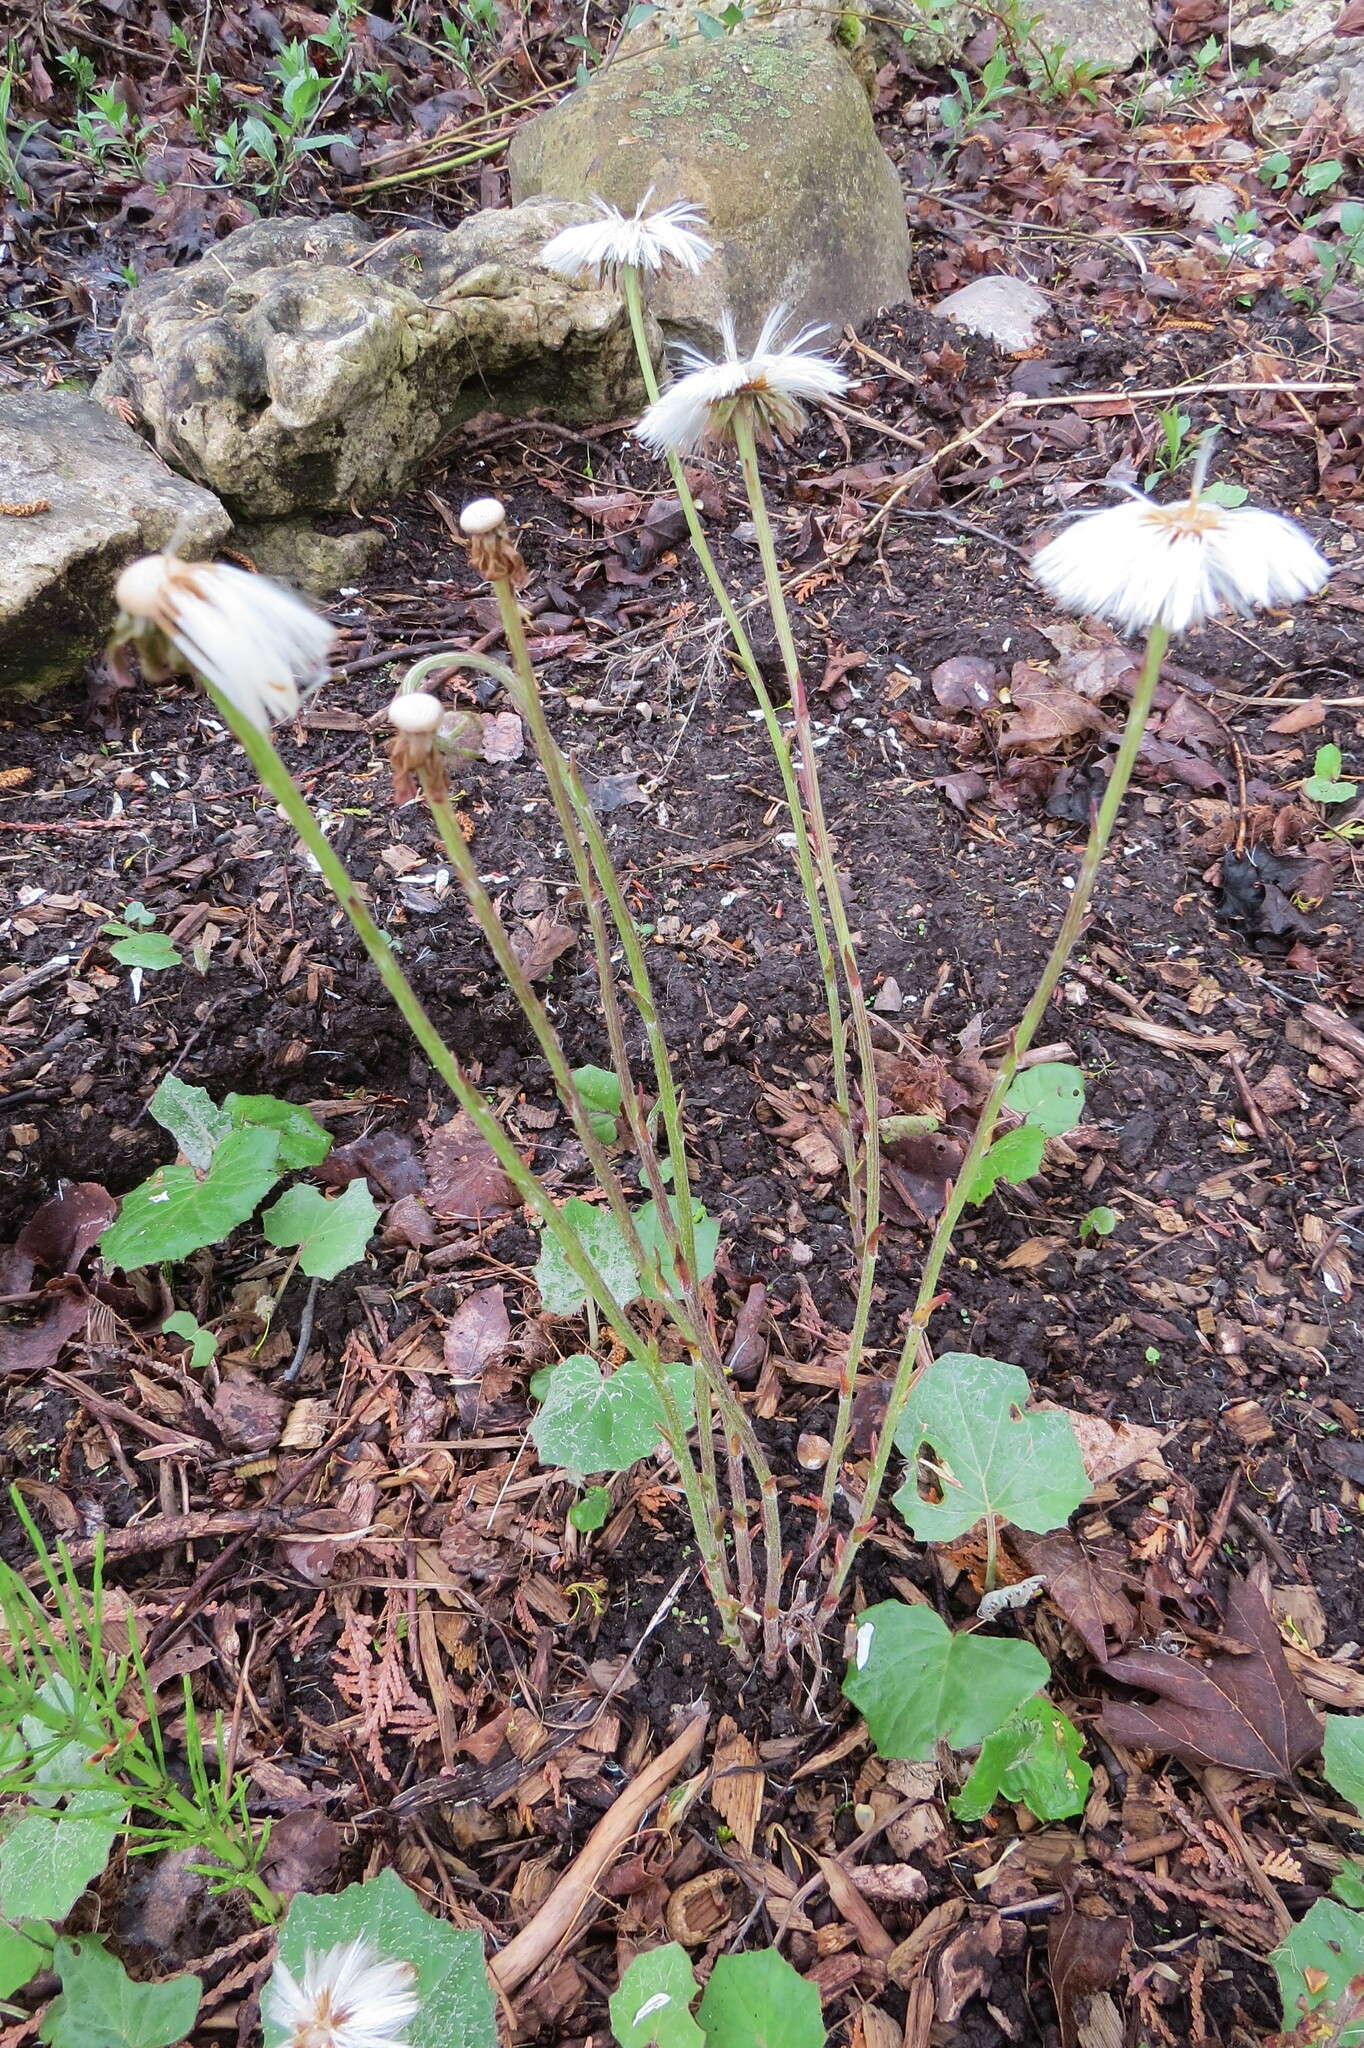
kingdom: Plantae
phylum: Tracheophyta
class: Magnoliopsida
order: Asterales
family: Asteraceae
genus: Tussilago
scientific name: Tussilago farfara
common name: Coltsfoot
